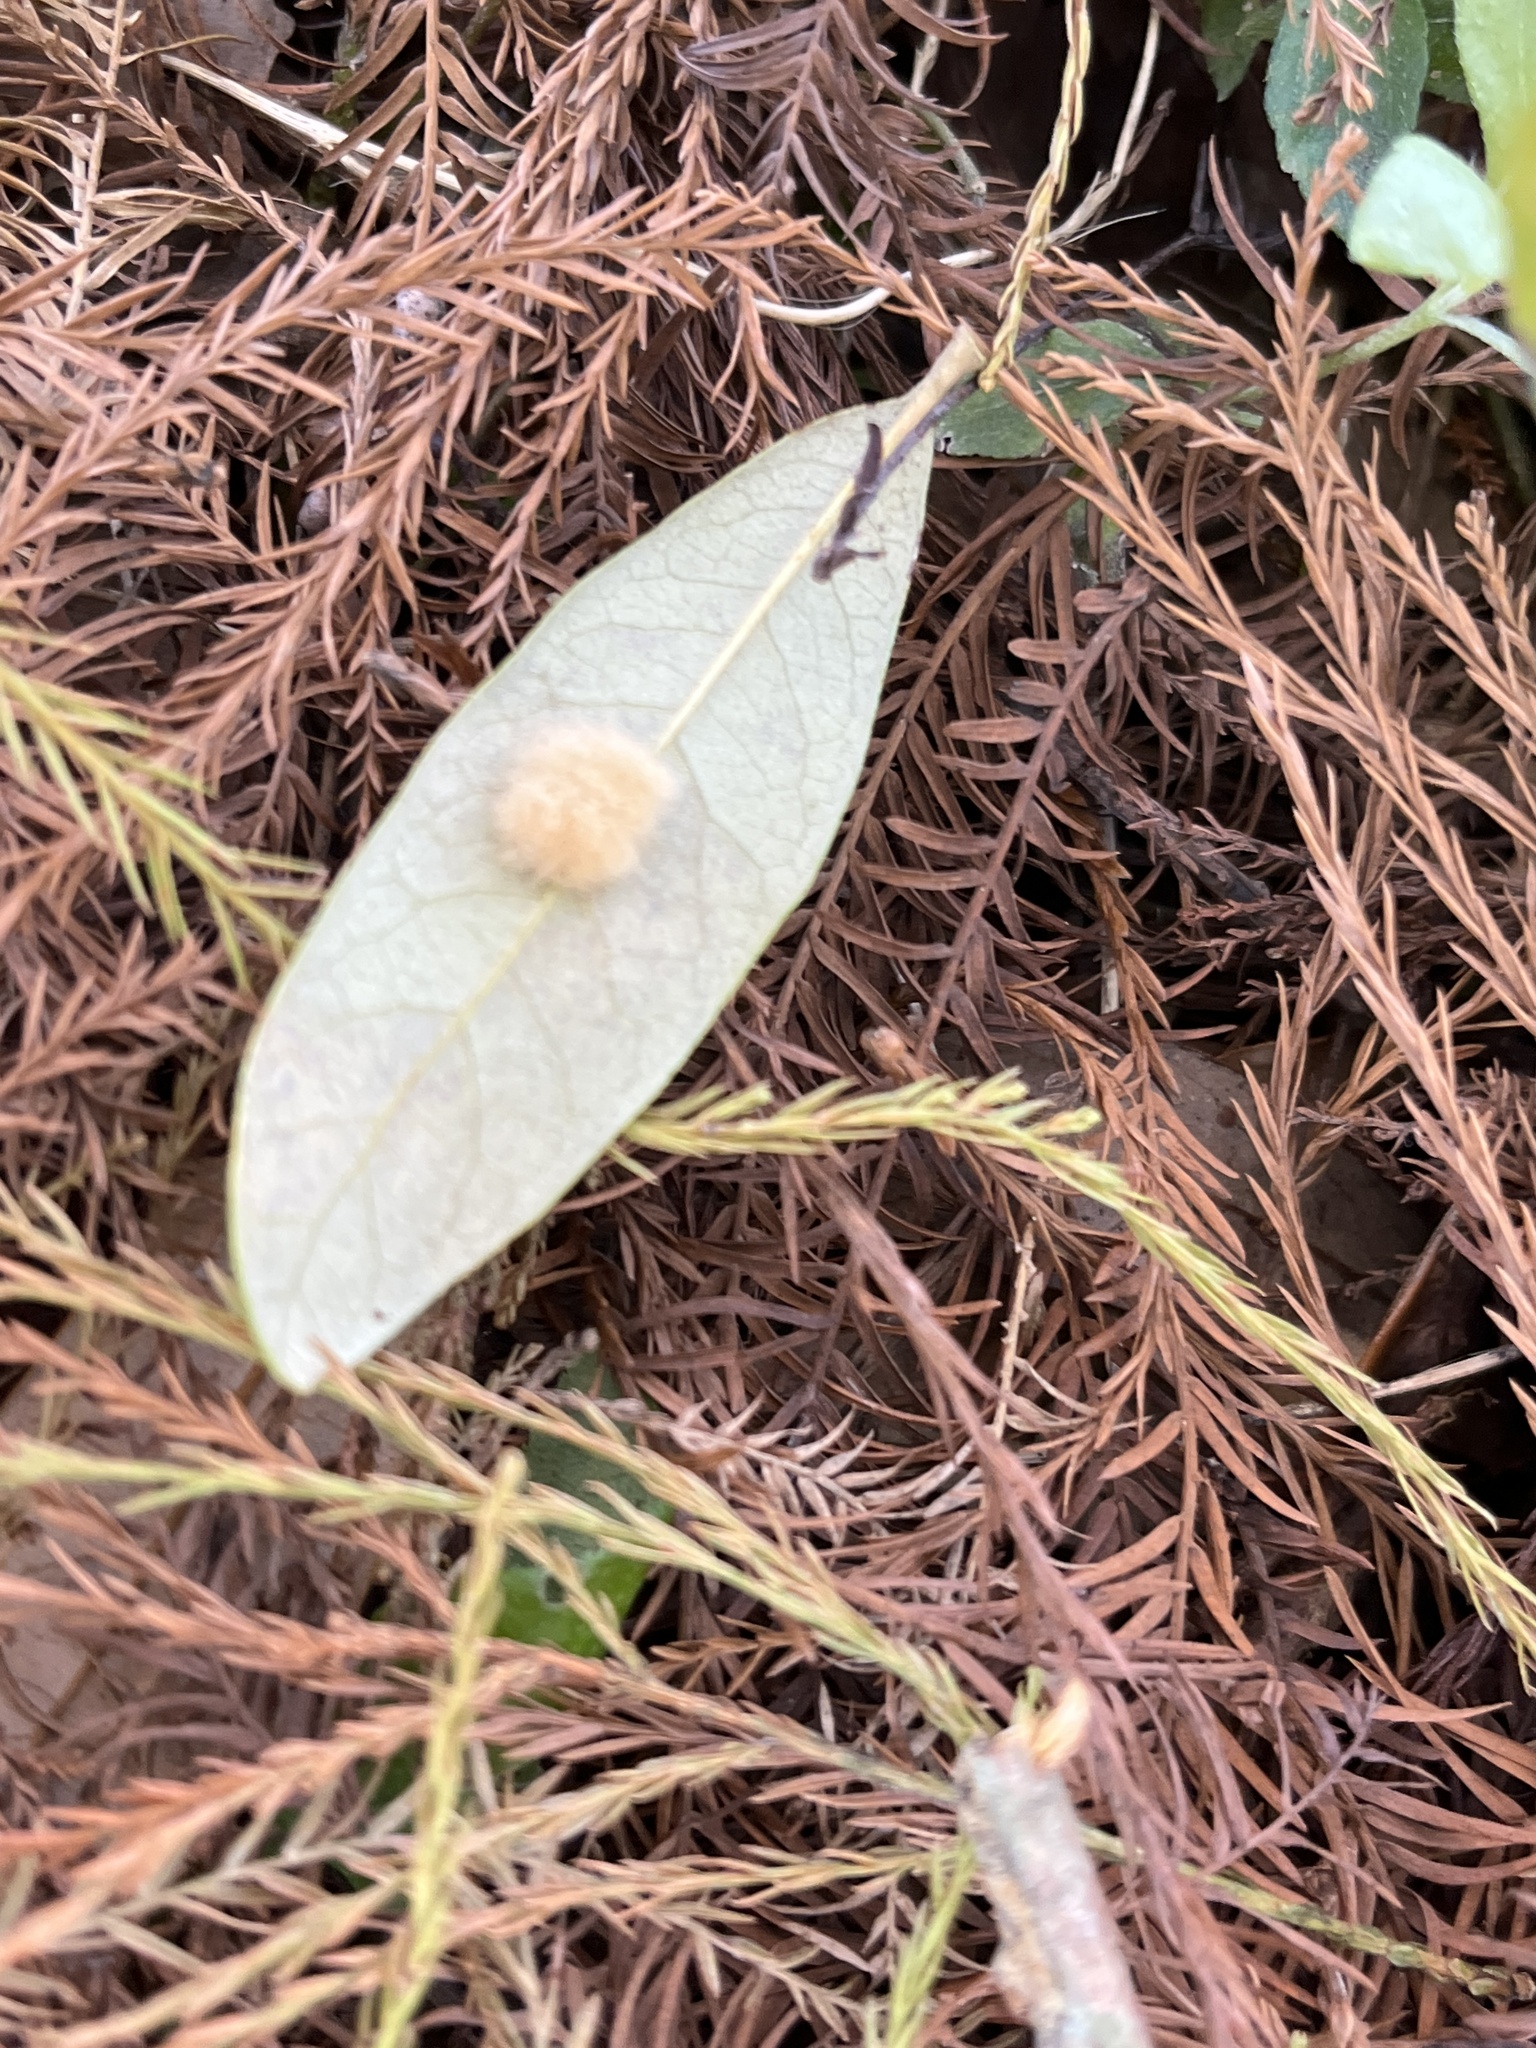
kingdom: Animalia
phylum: Arthropoda
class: Insecta
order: Hymenoptera
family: Cynipidae
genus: Andricus
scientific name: Andricus Druon quercuslanigerum
